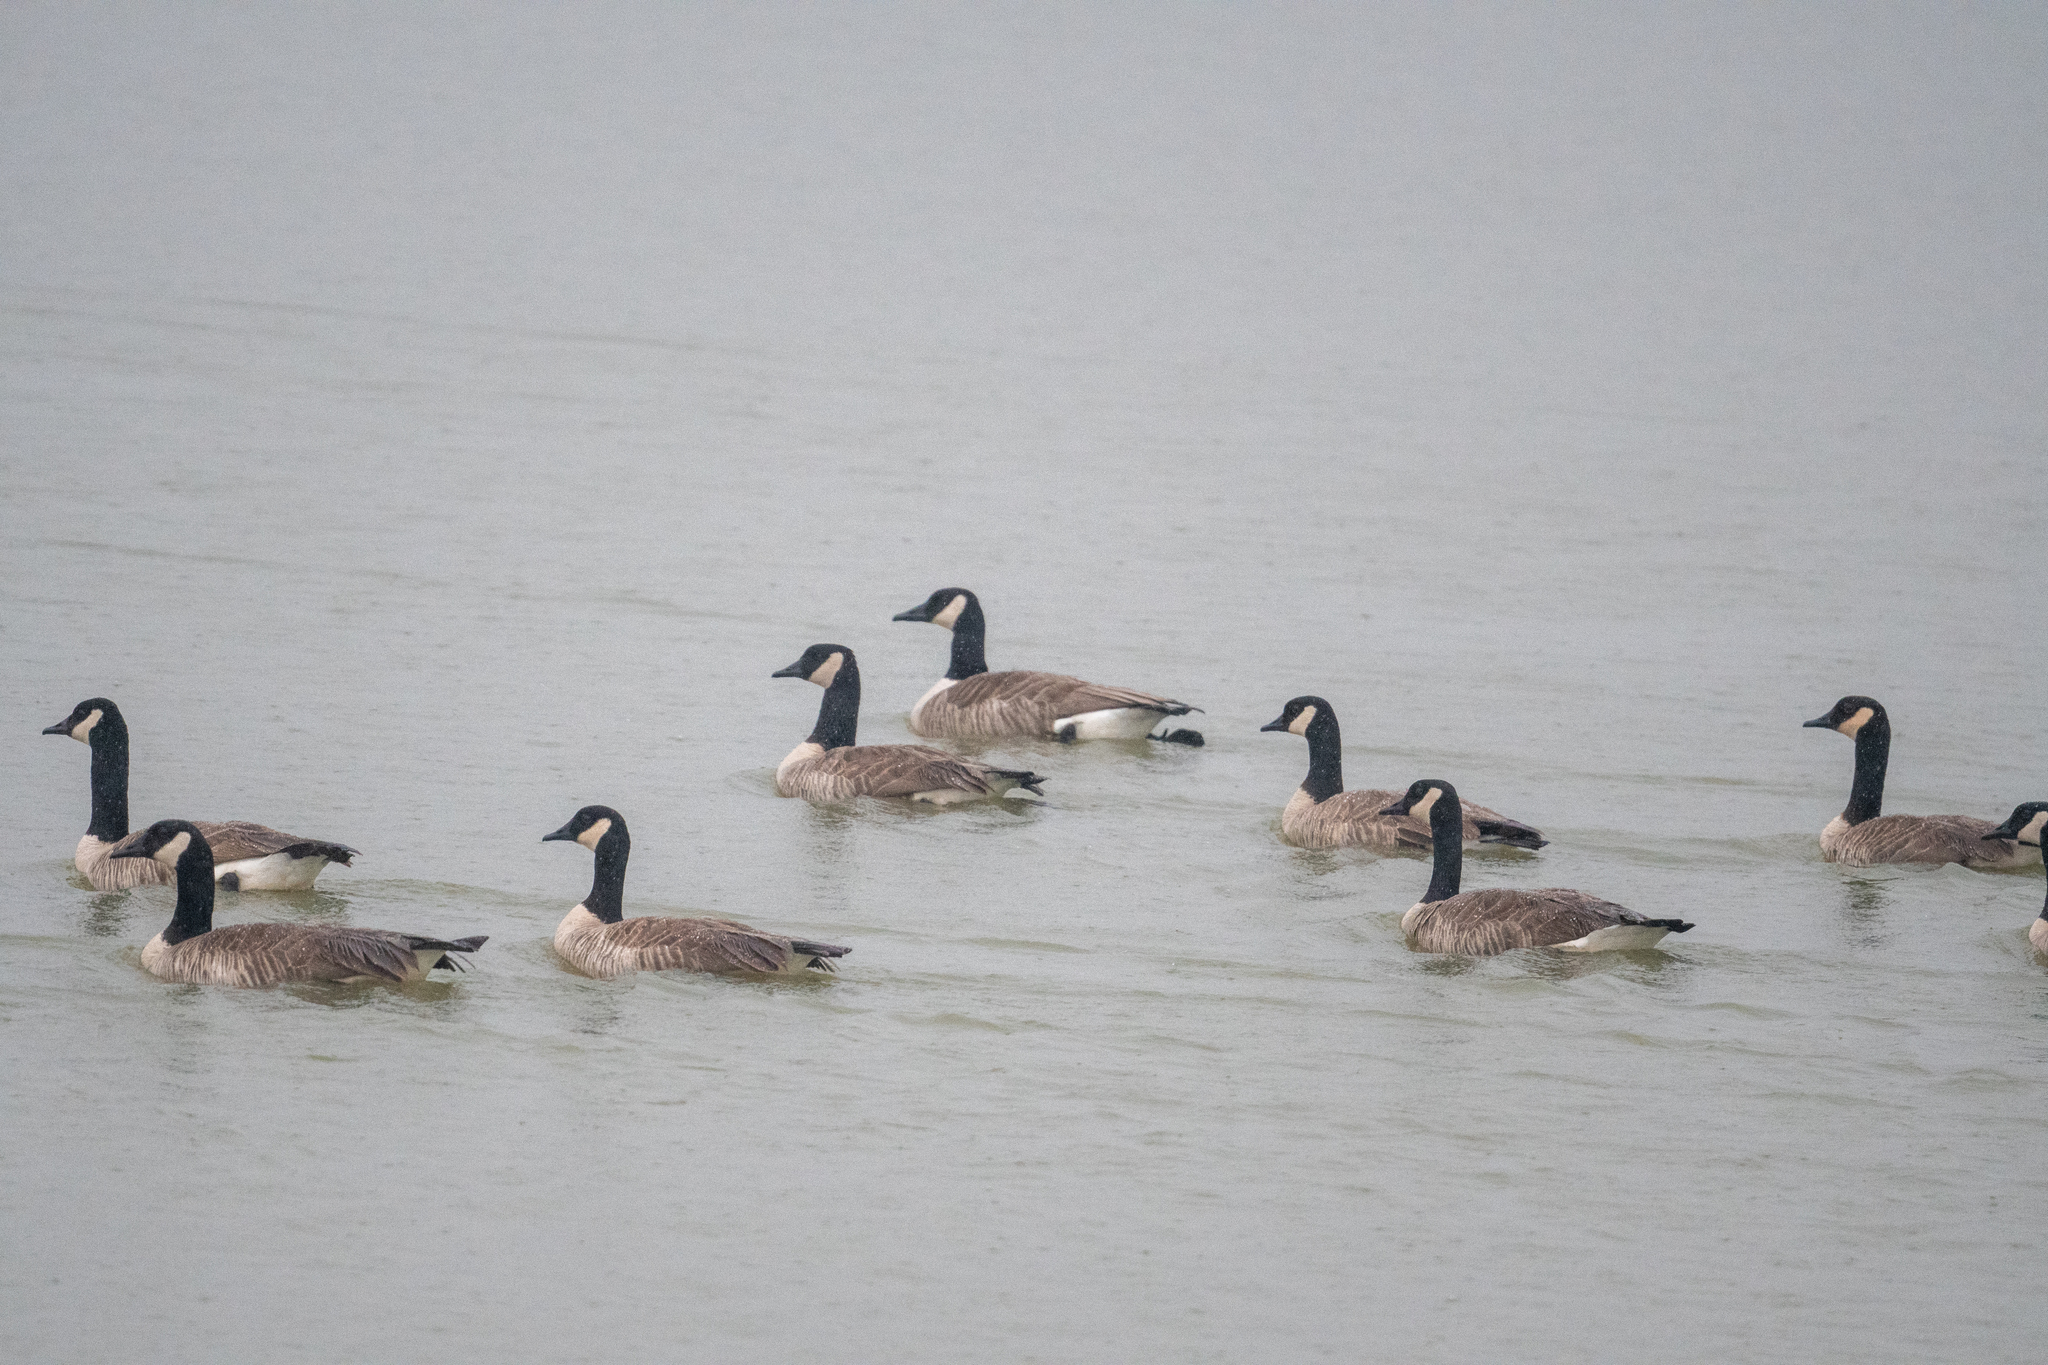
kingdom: Animalia
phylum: Chordata
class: Aves
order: Anseriformes
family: Anatidae
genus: Branta
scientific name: Branta canadensis
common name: Canada goose
